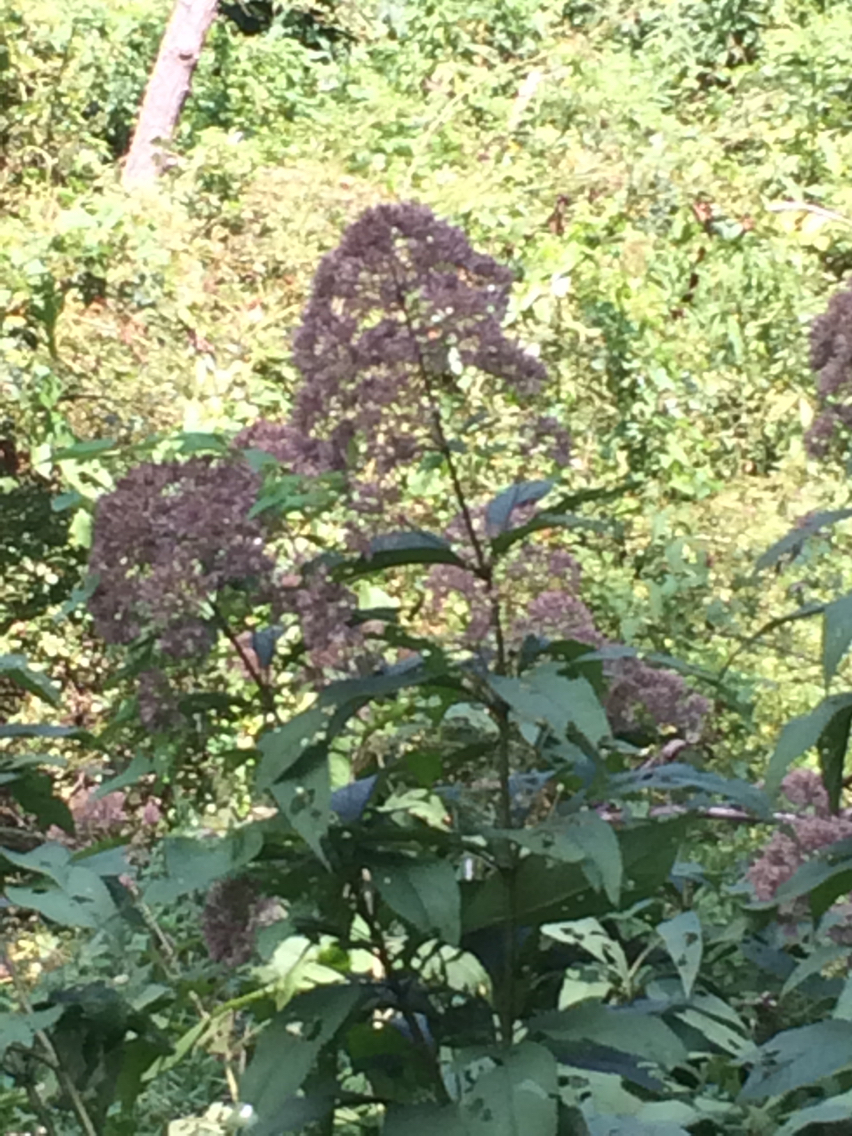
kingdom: Plantae
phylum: Tracheophyta
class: Magnoliopsida
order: Asterales
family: Asteraceae
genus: Eutrochium
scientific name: Eutrochium fistulosum
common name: Trumpetweed
